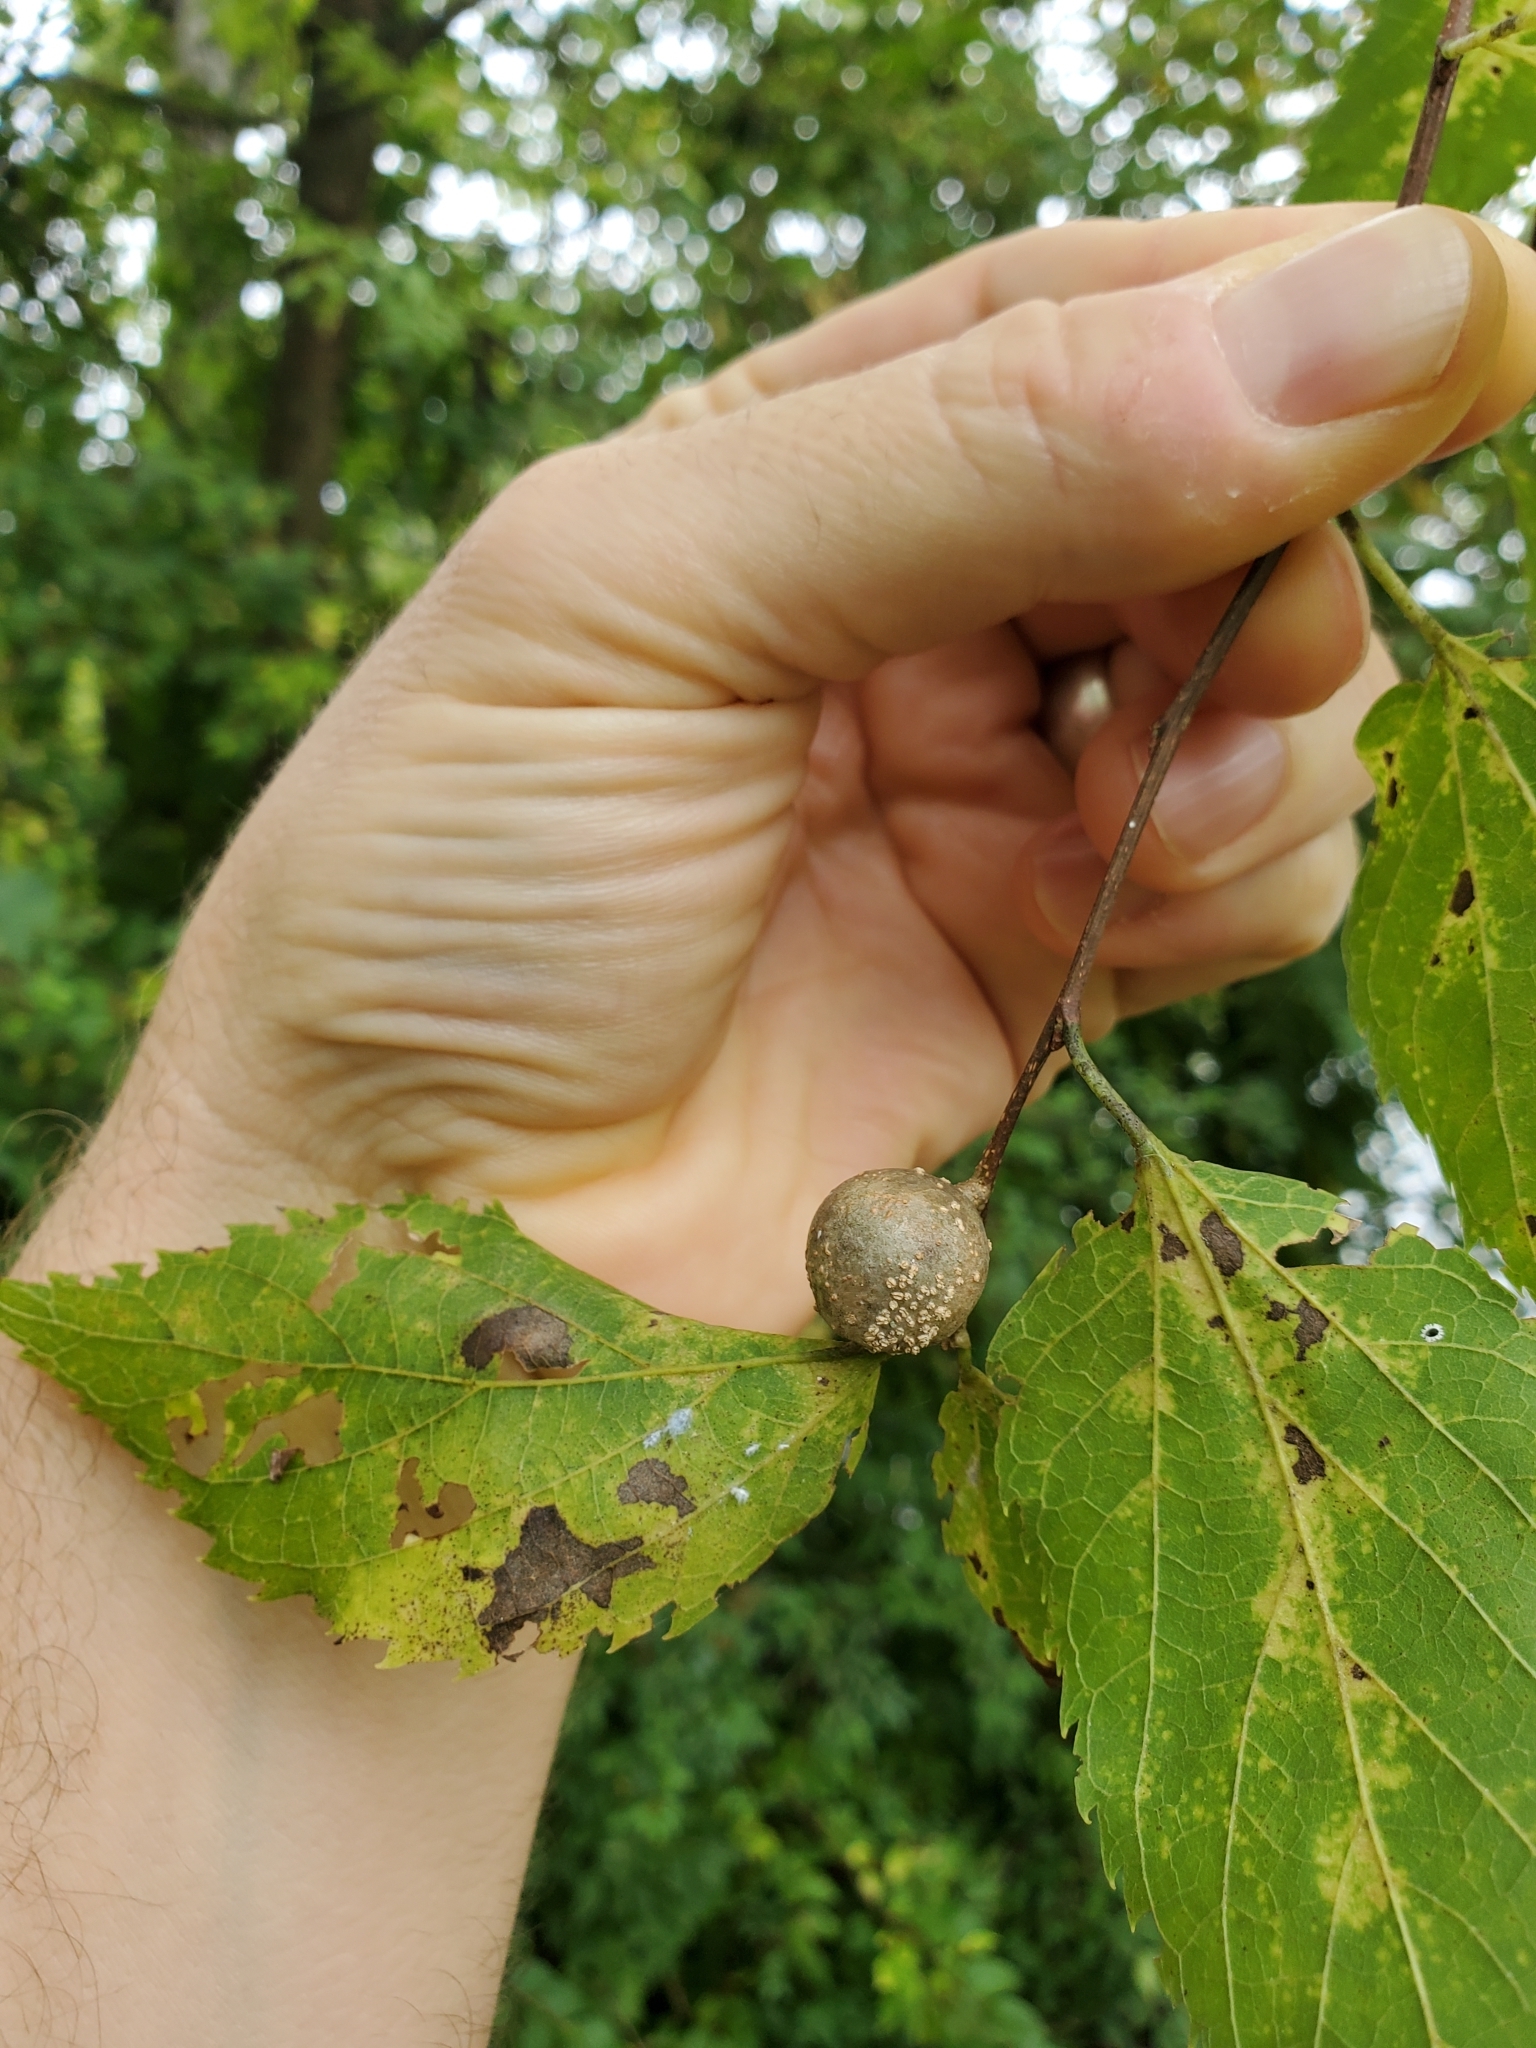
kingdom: Animalia
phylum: Arthropoda
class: Insecta
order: Hemiptera
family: Aphalaridae
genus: Pachypsylla
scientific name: Pachypsylla venusta
